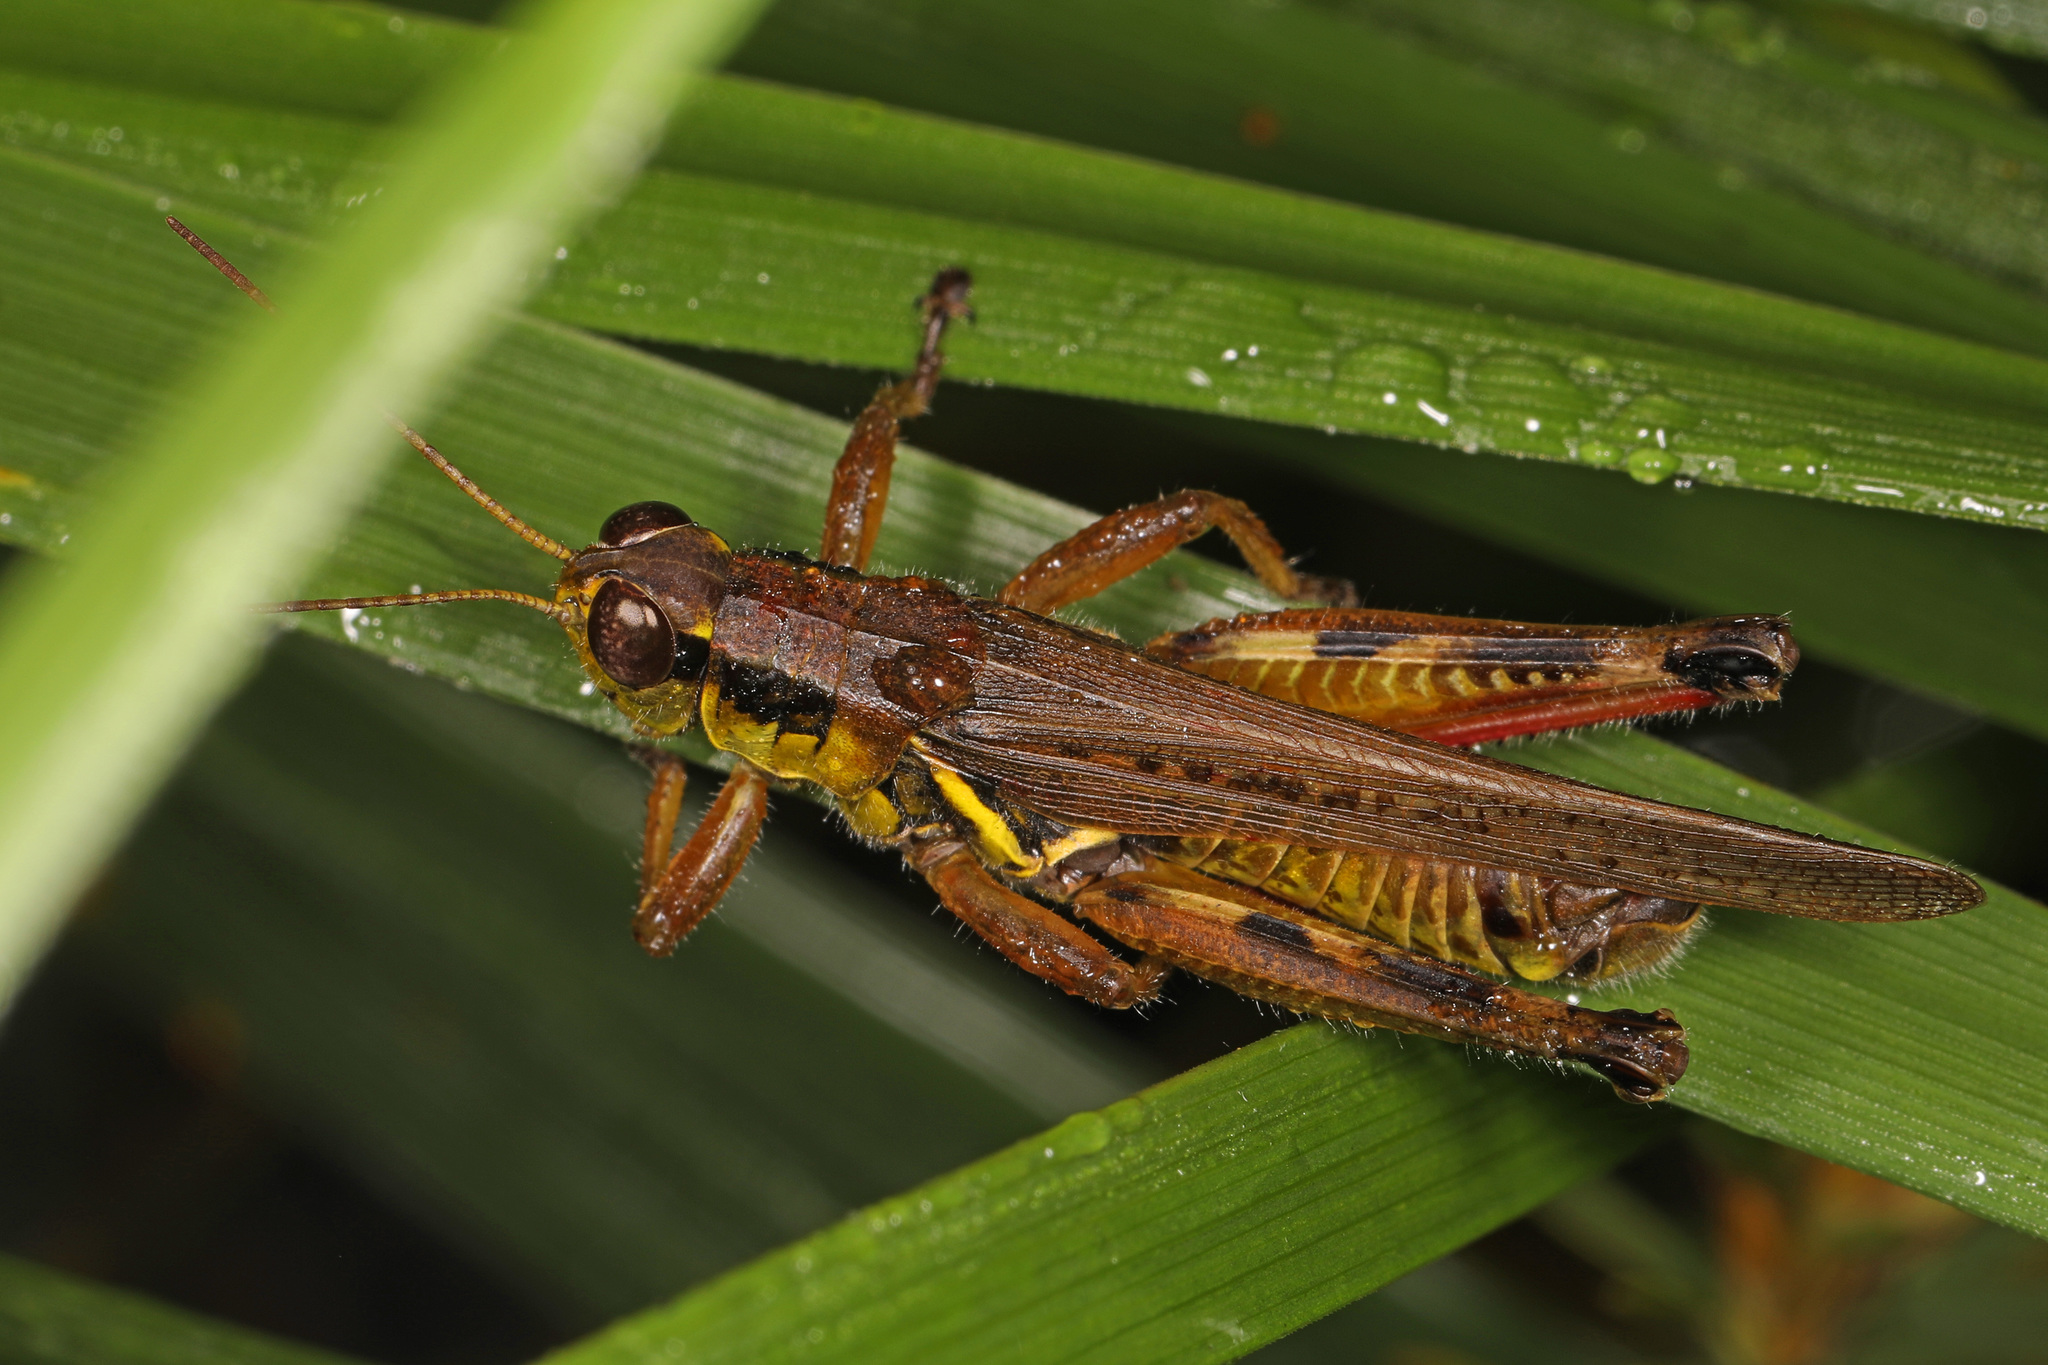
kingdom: Animalia
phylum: Arthropoda
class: Insecta
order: Orthoptera
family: Acrididae
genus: Melanoplus
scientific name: Melanoplus femurrubrum
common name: Red-legged grasshopper
